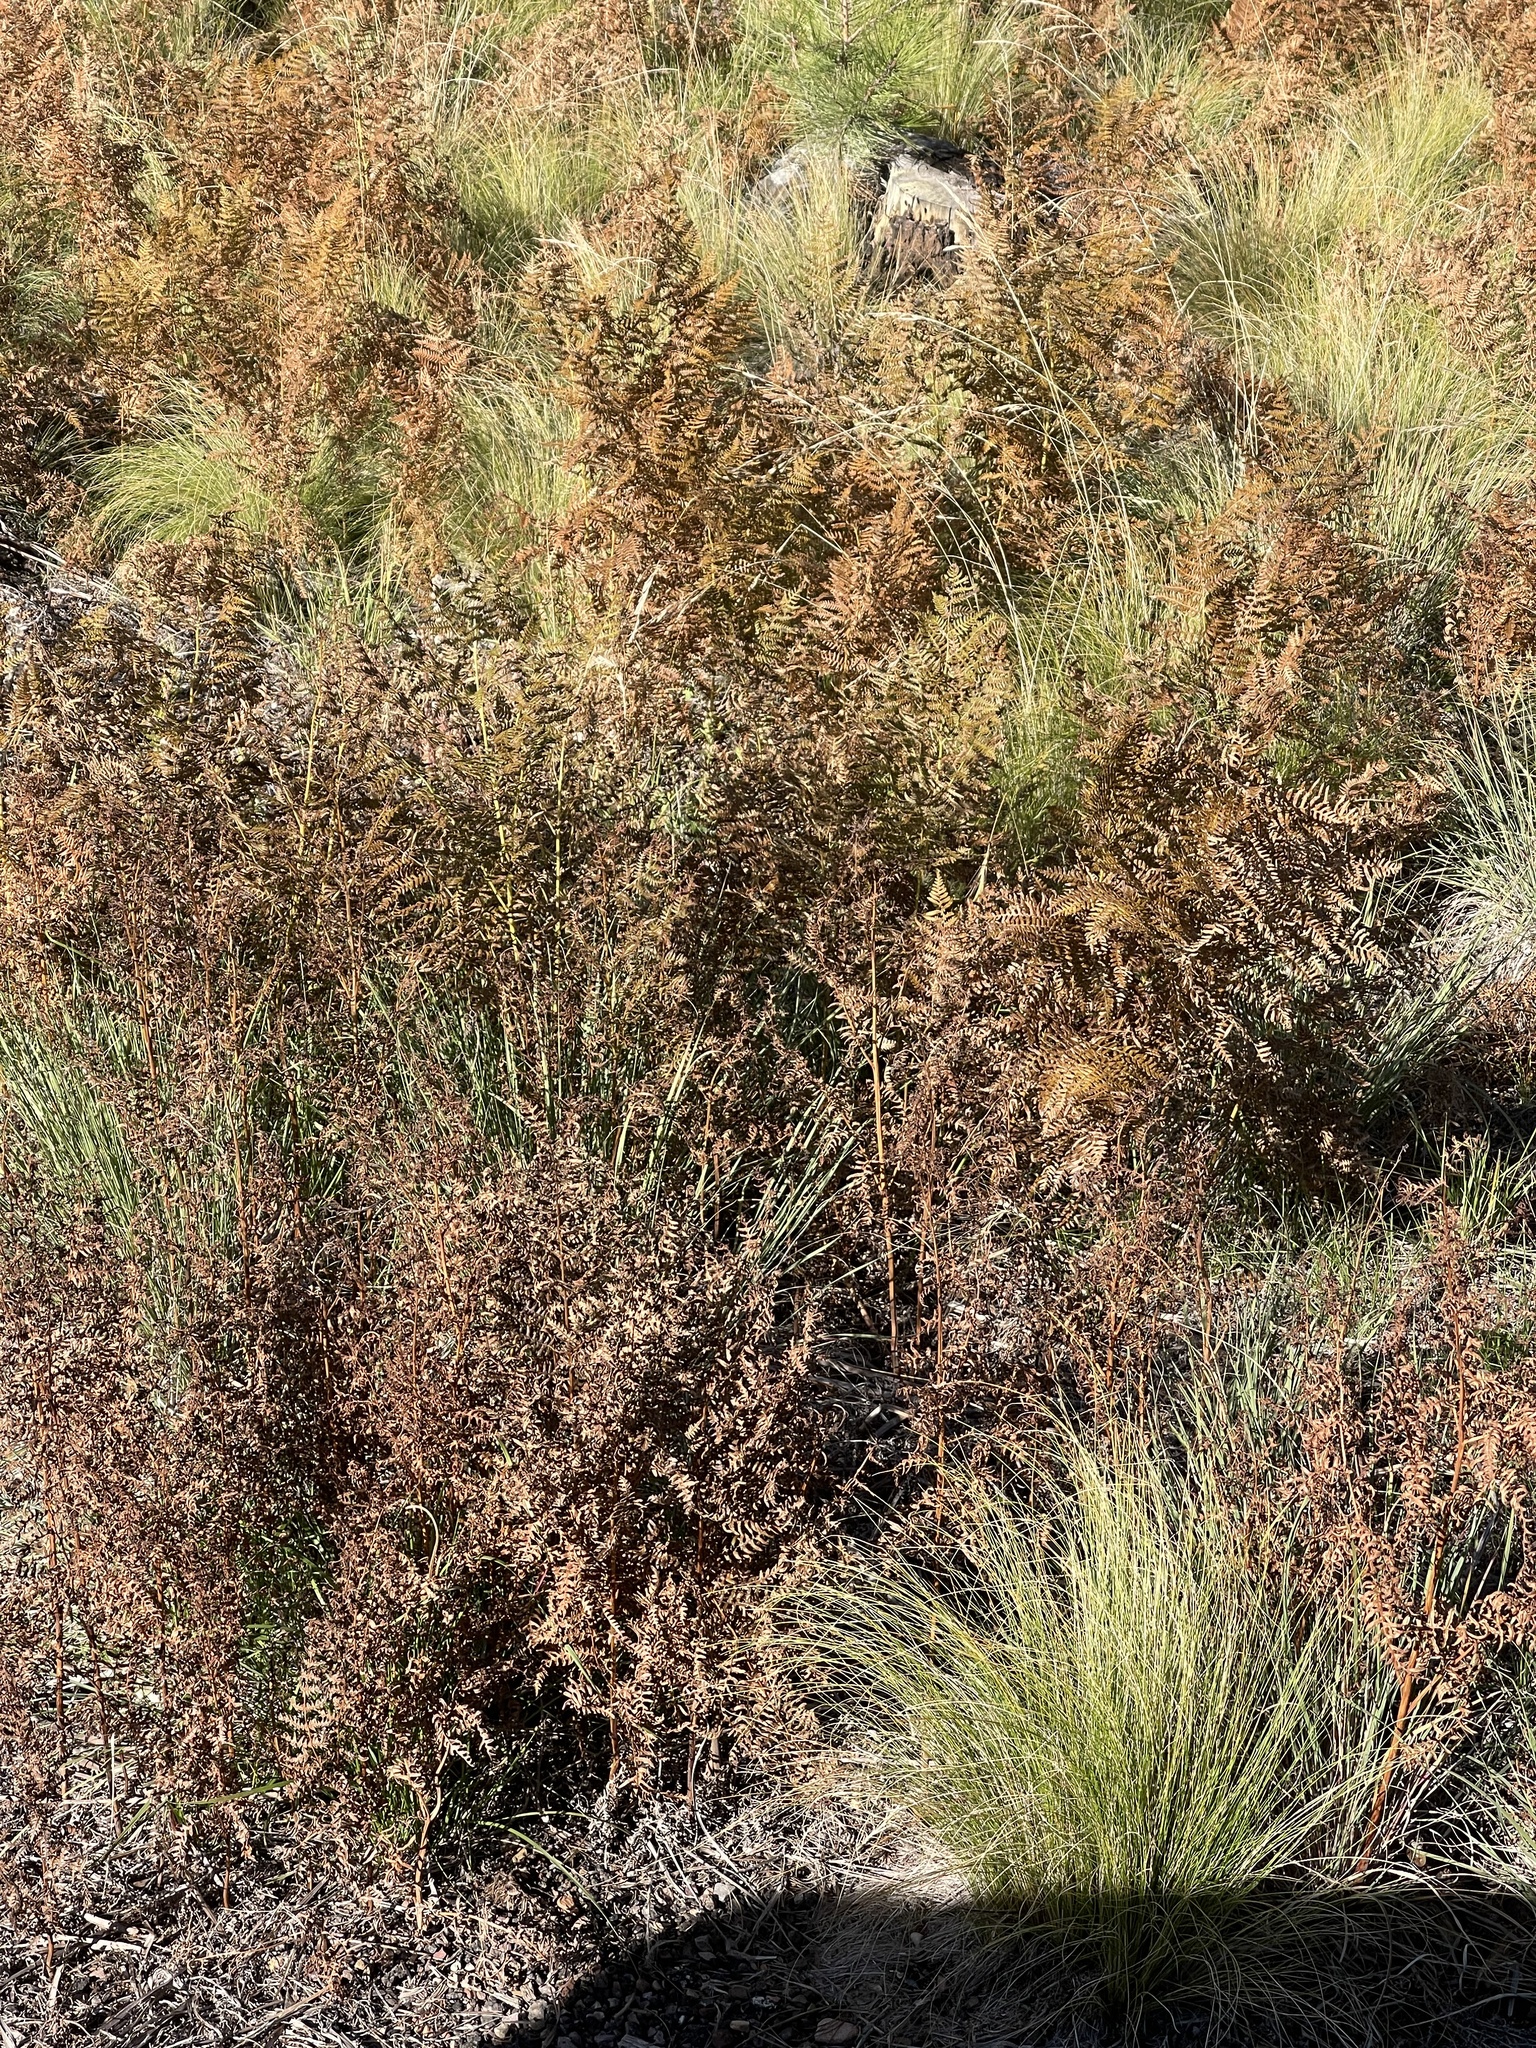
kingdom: Plantae
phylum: Tracheophyta
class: Polypodiopsida
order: Polypodiales
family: Dennstaedtiaceae
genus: Pteridium
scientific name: Pteridium aquilinum
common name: Bracken
